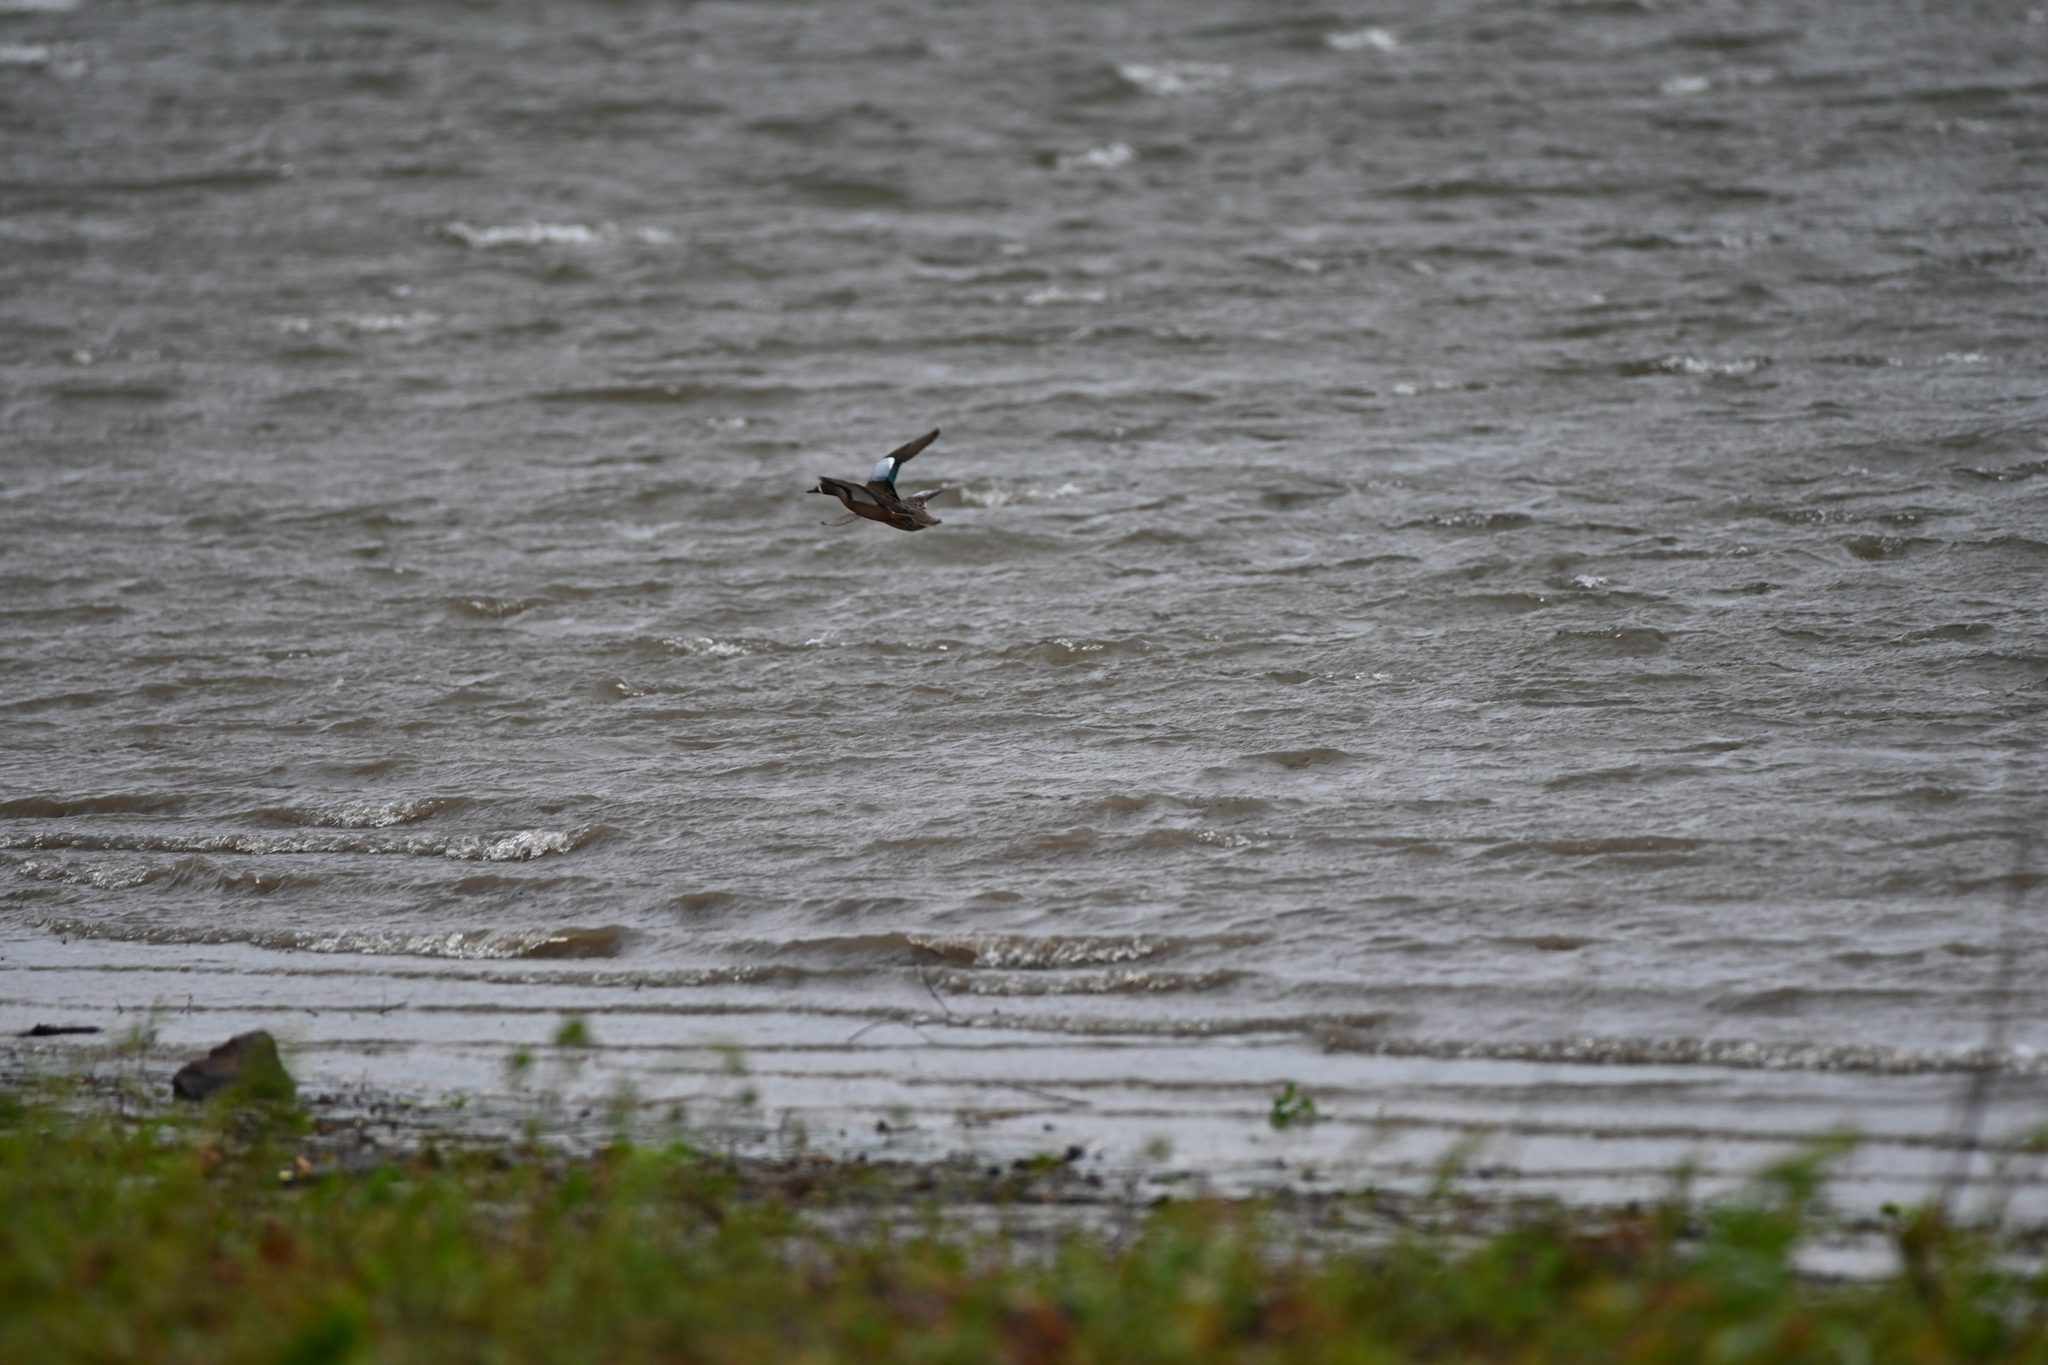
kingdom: Animalia
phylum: Chordata
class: Aves
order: Anseriformes
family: Anatidae
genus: Spatula
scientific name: Spatula discors
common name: Blue-winged teal
